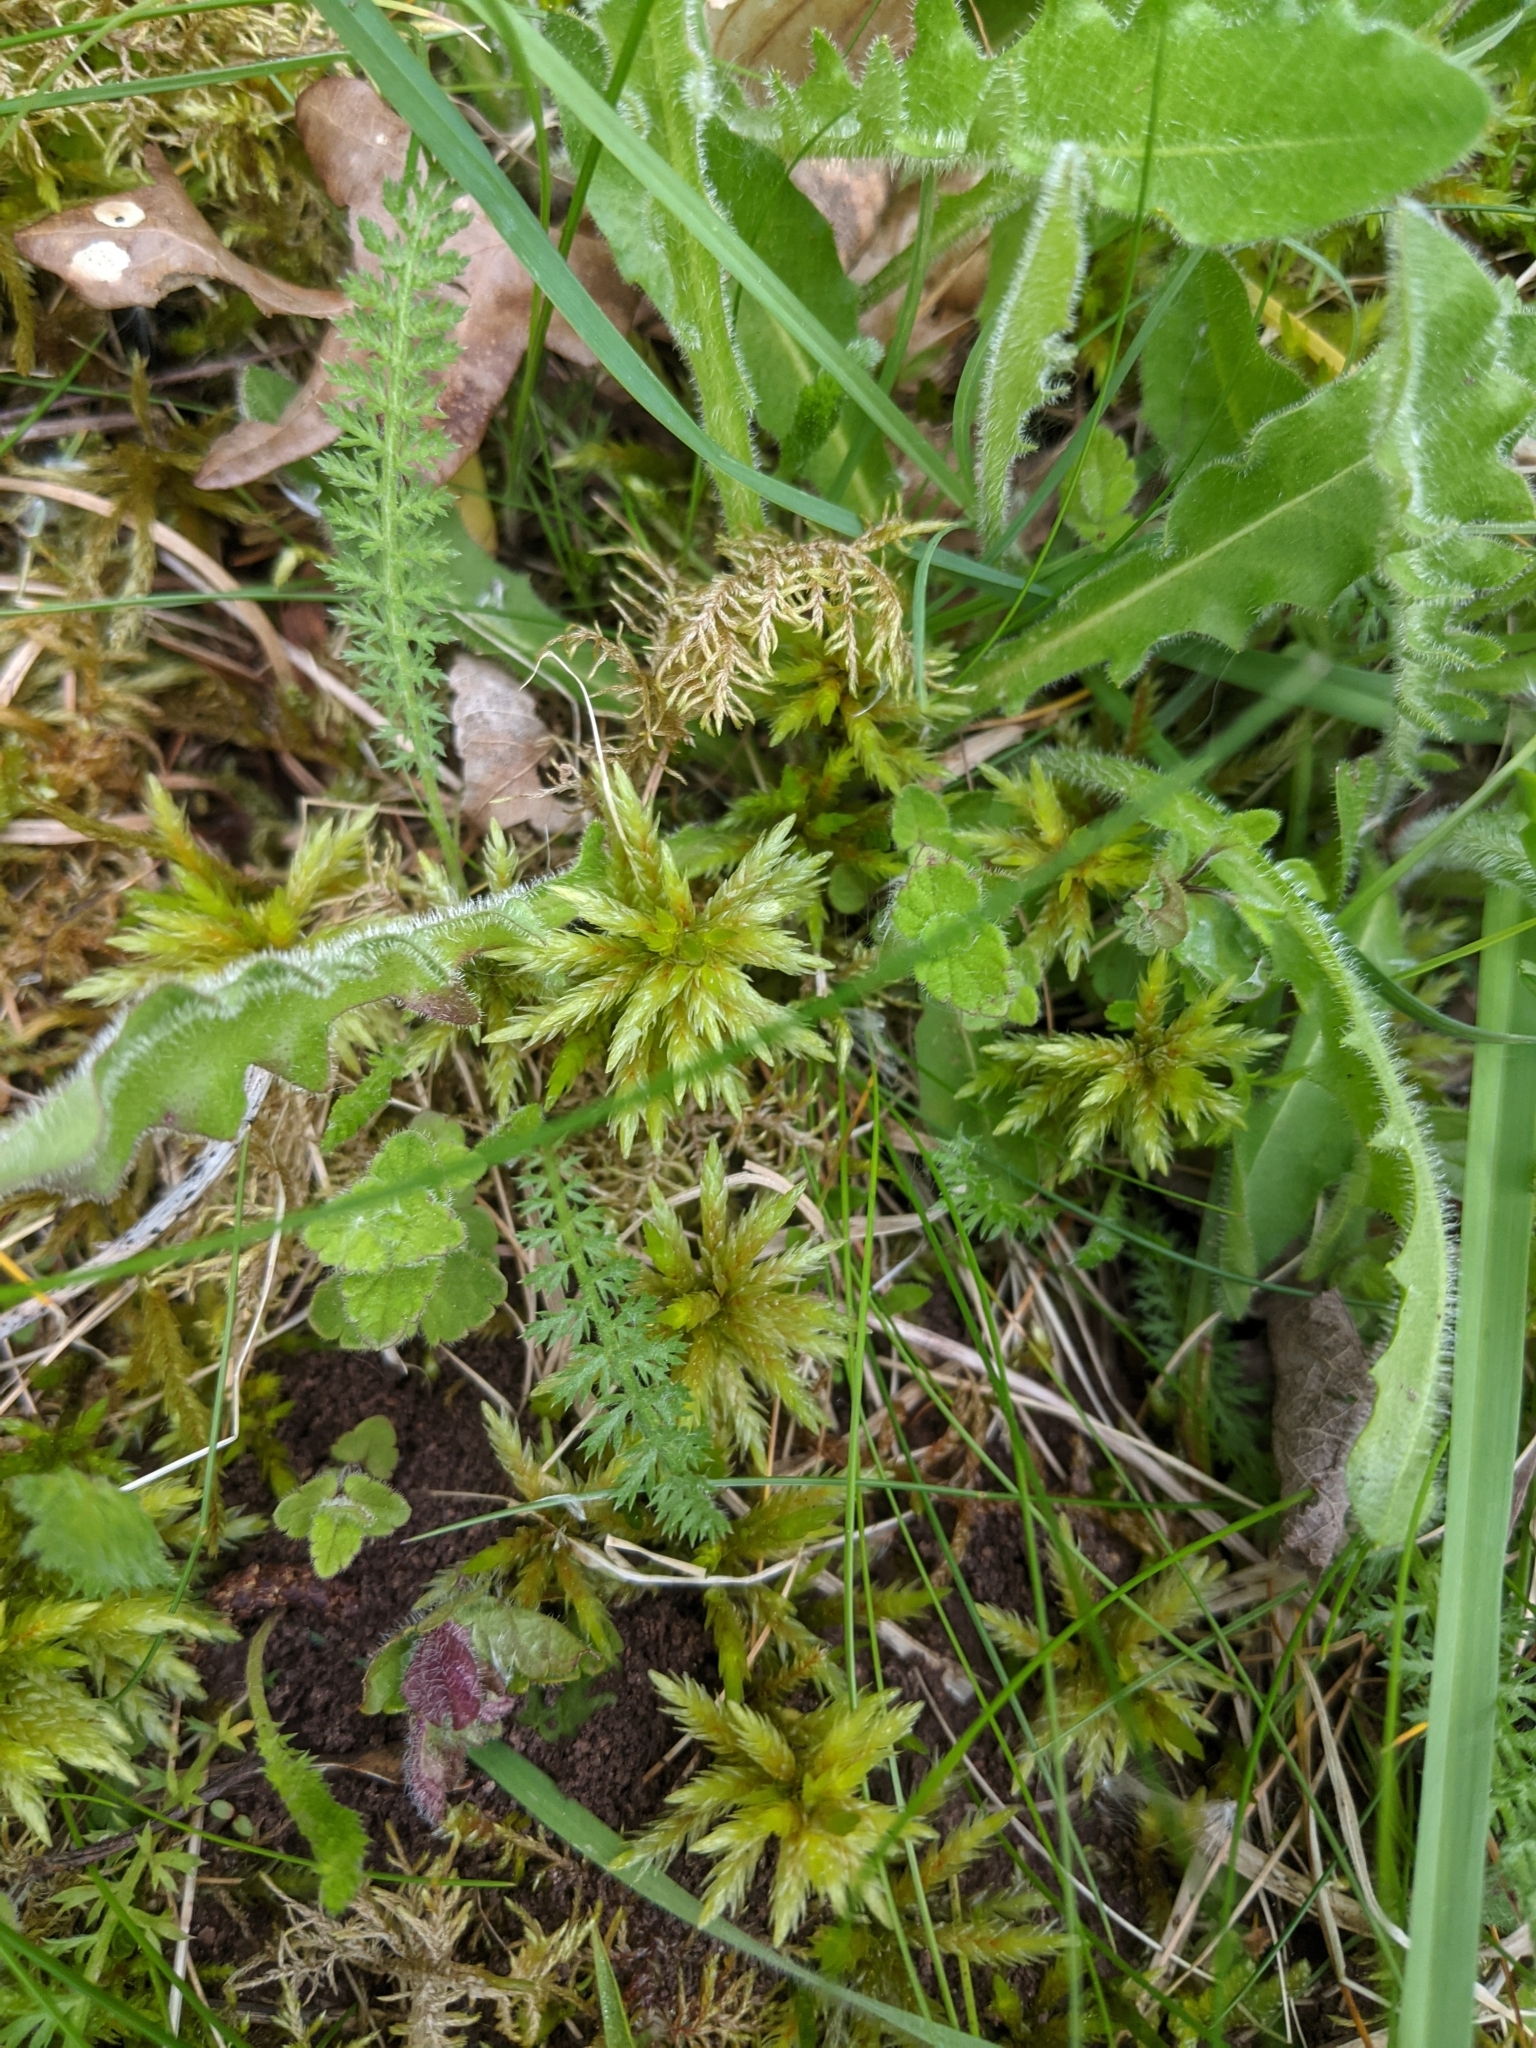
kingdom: Plantae
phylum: Bryophyta
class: Bryopsida
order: Hypnales
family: Climaciaceae
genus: Climacium
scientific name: Climacium dendroides
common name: Northern tree moss
